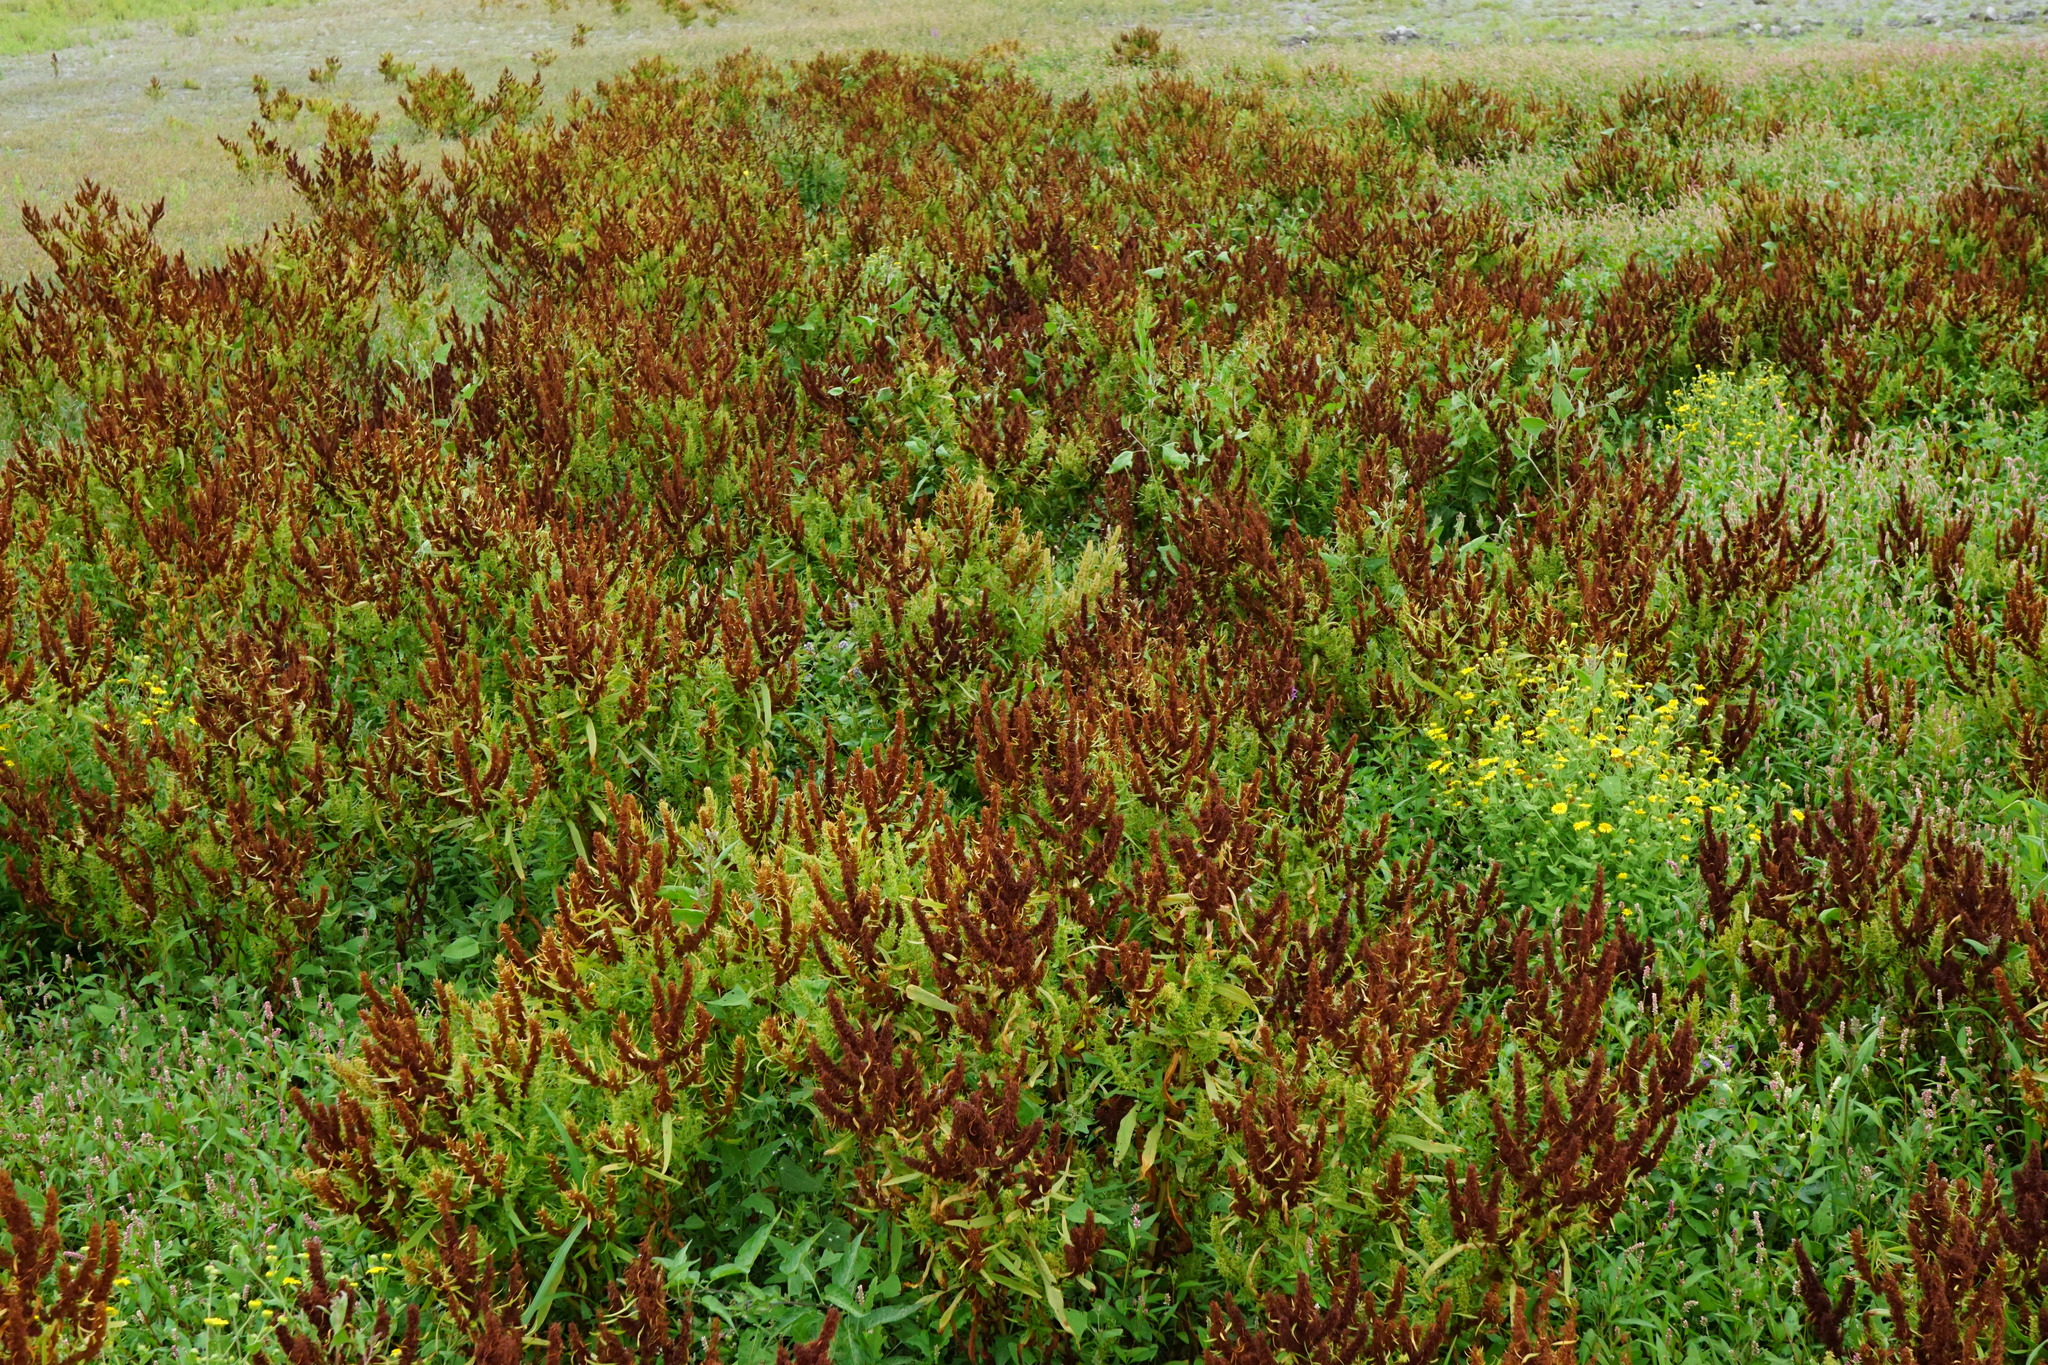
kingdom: Plantae
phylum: Tracheophyta
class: Magnoliopsida
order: Caryophyllales
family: Polygonaceae
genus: Rumex
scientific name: Rumex maritimus
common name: Golden dock
